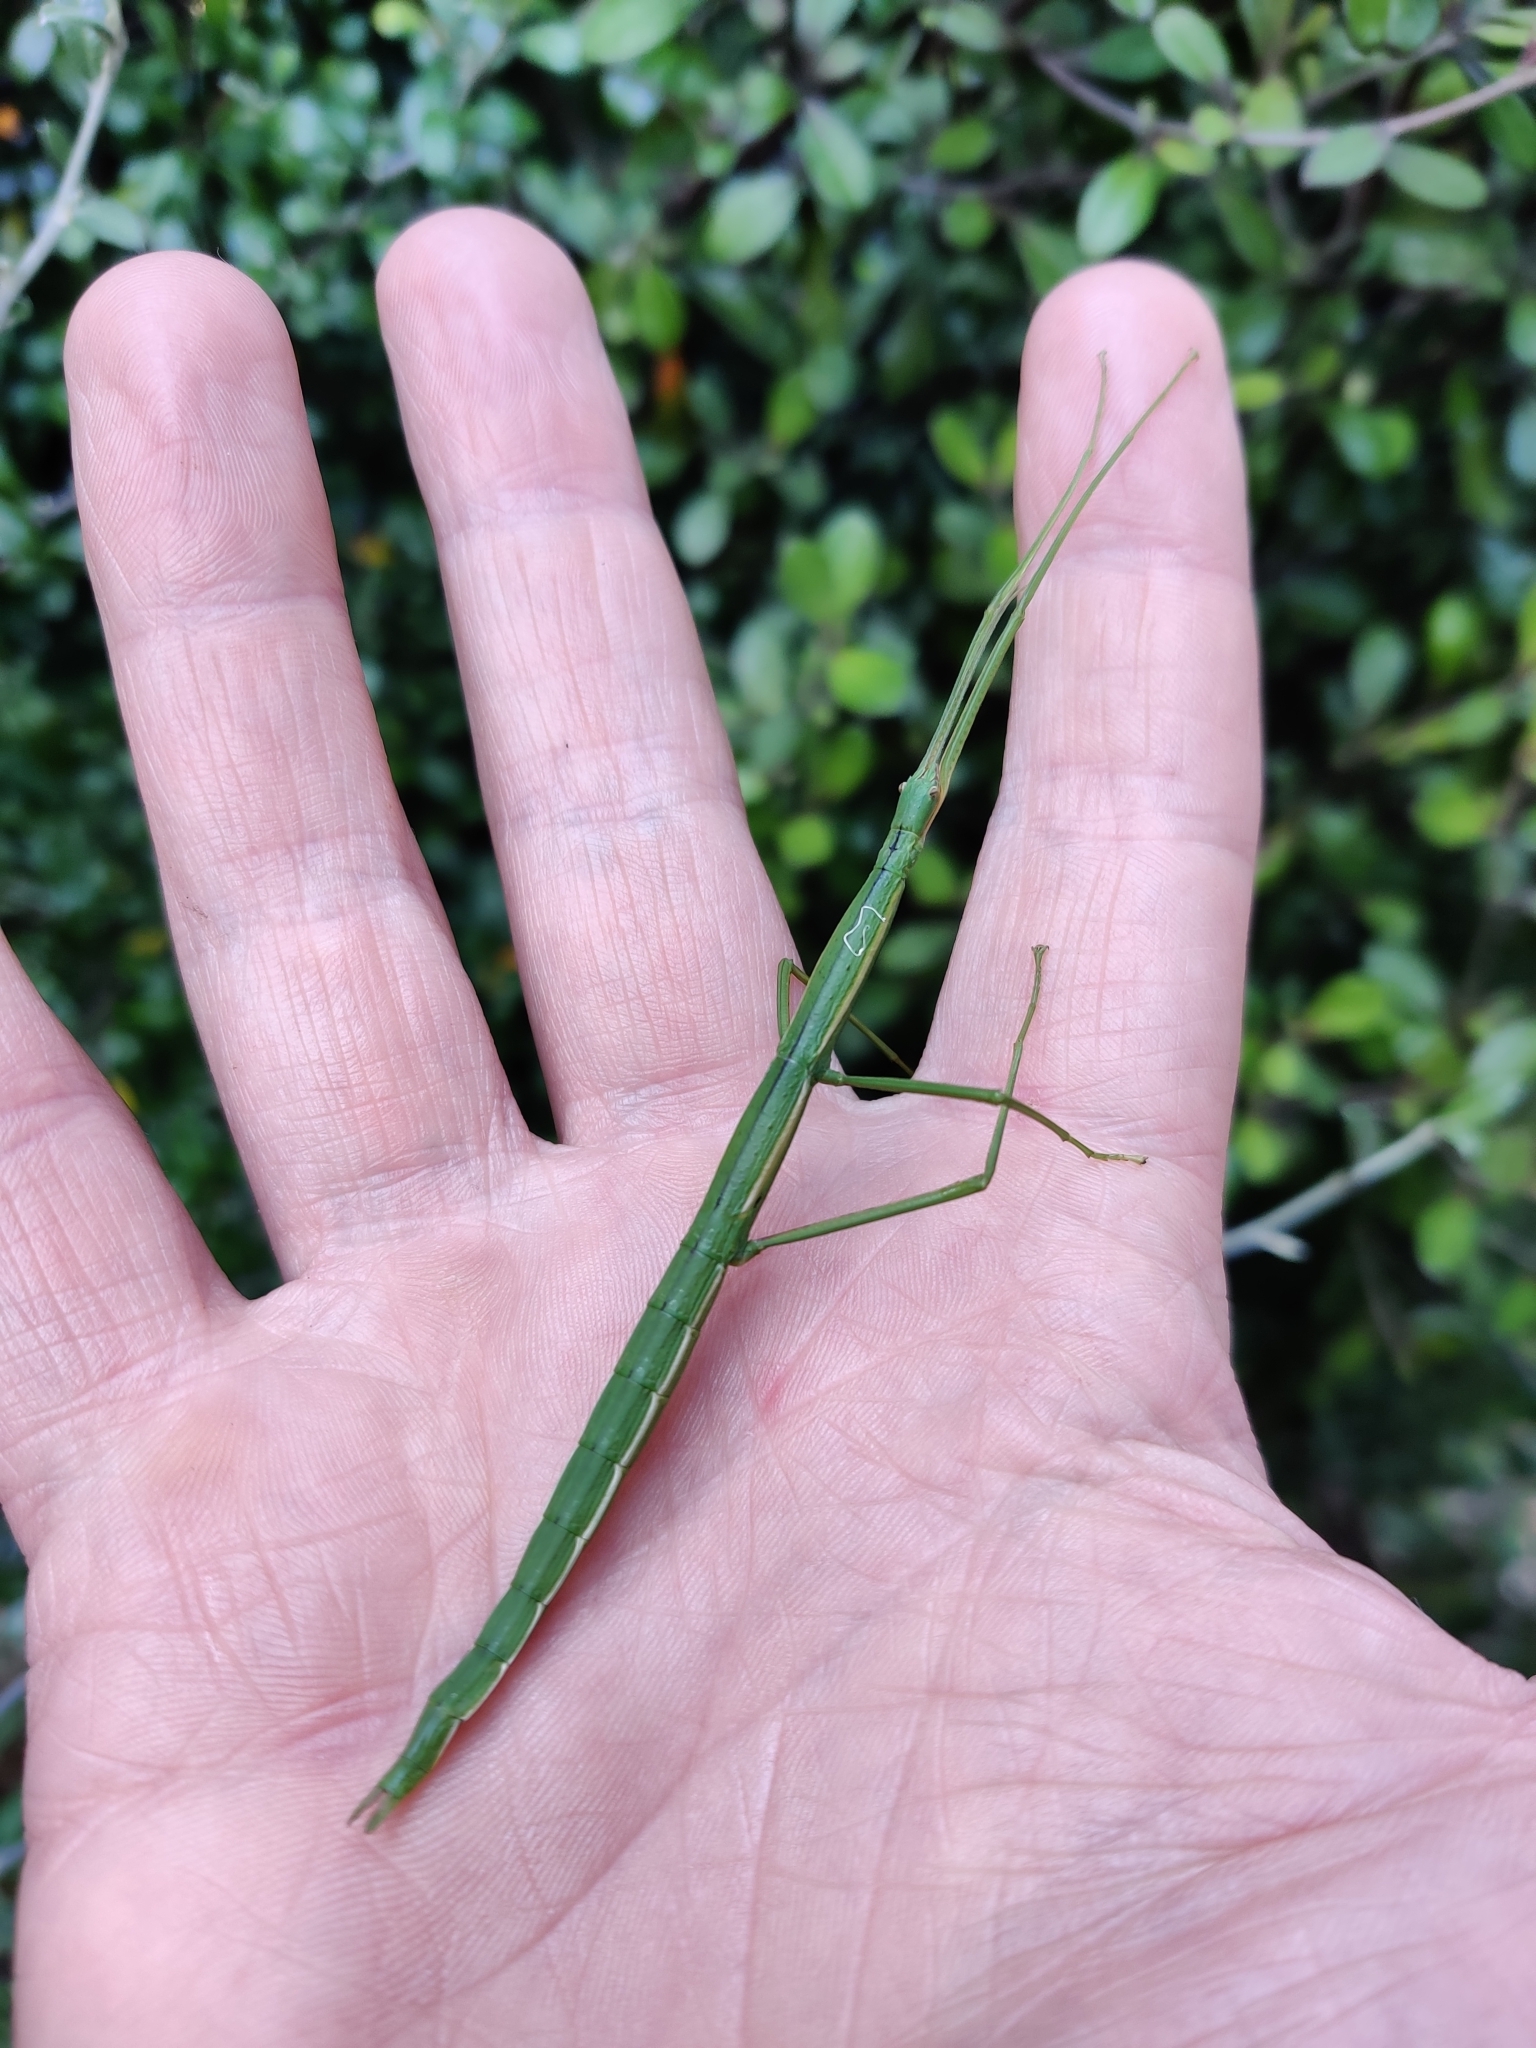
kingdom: Animalia
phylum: Arthropoda
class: Insecta
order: Phasmida
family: Phasmatidae
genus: Clitarchus
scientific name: Clitarchus hookeri
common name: Smooth stick insect
